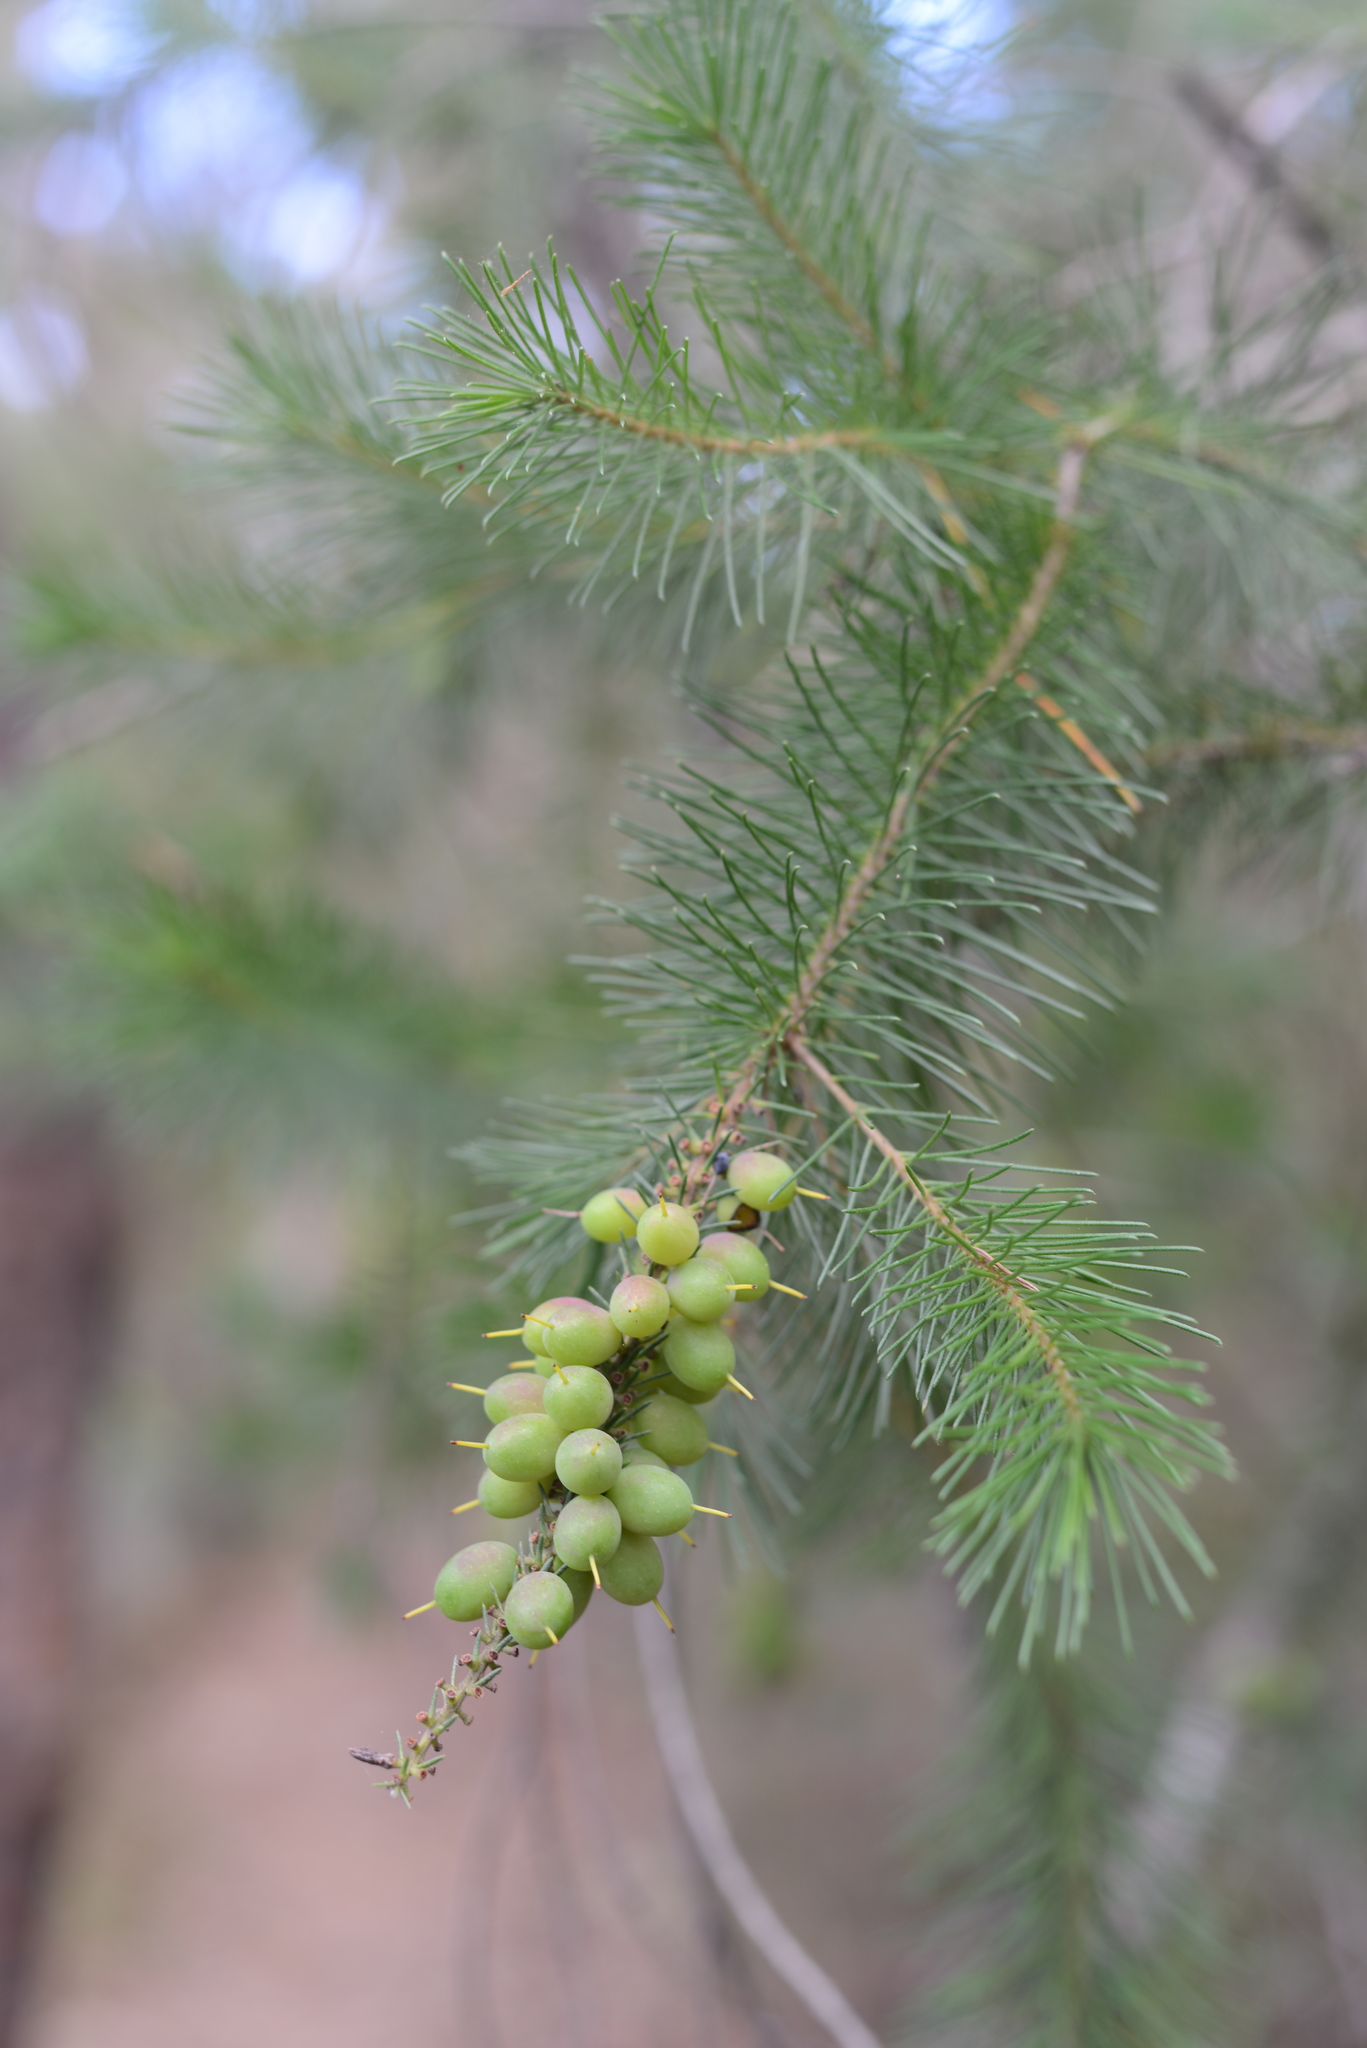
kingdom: Plantae
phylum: Tracheophyta
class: Magnoliopsida
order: Proteales
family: Proteaceae
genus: Persoonia
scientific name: Persoonia pinifolia
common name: Pine-leaf geebung
